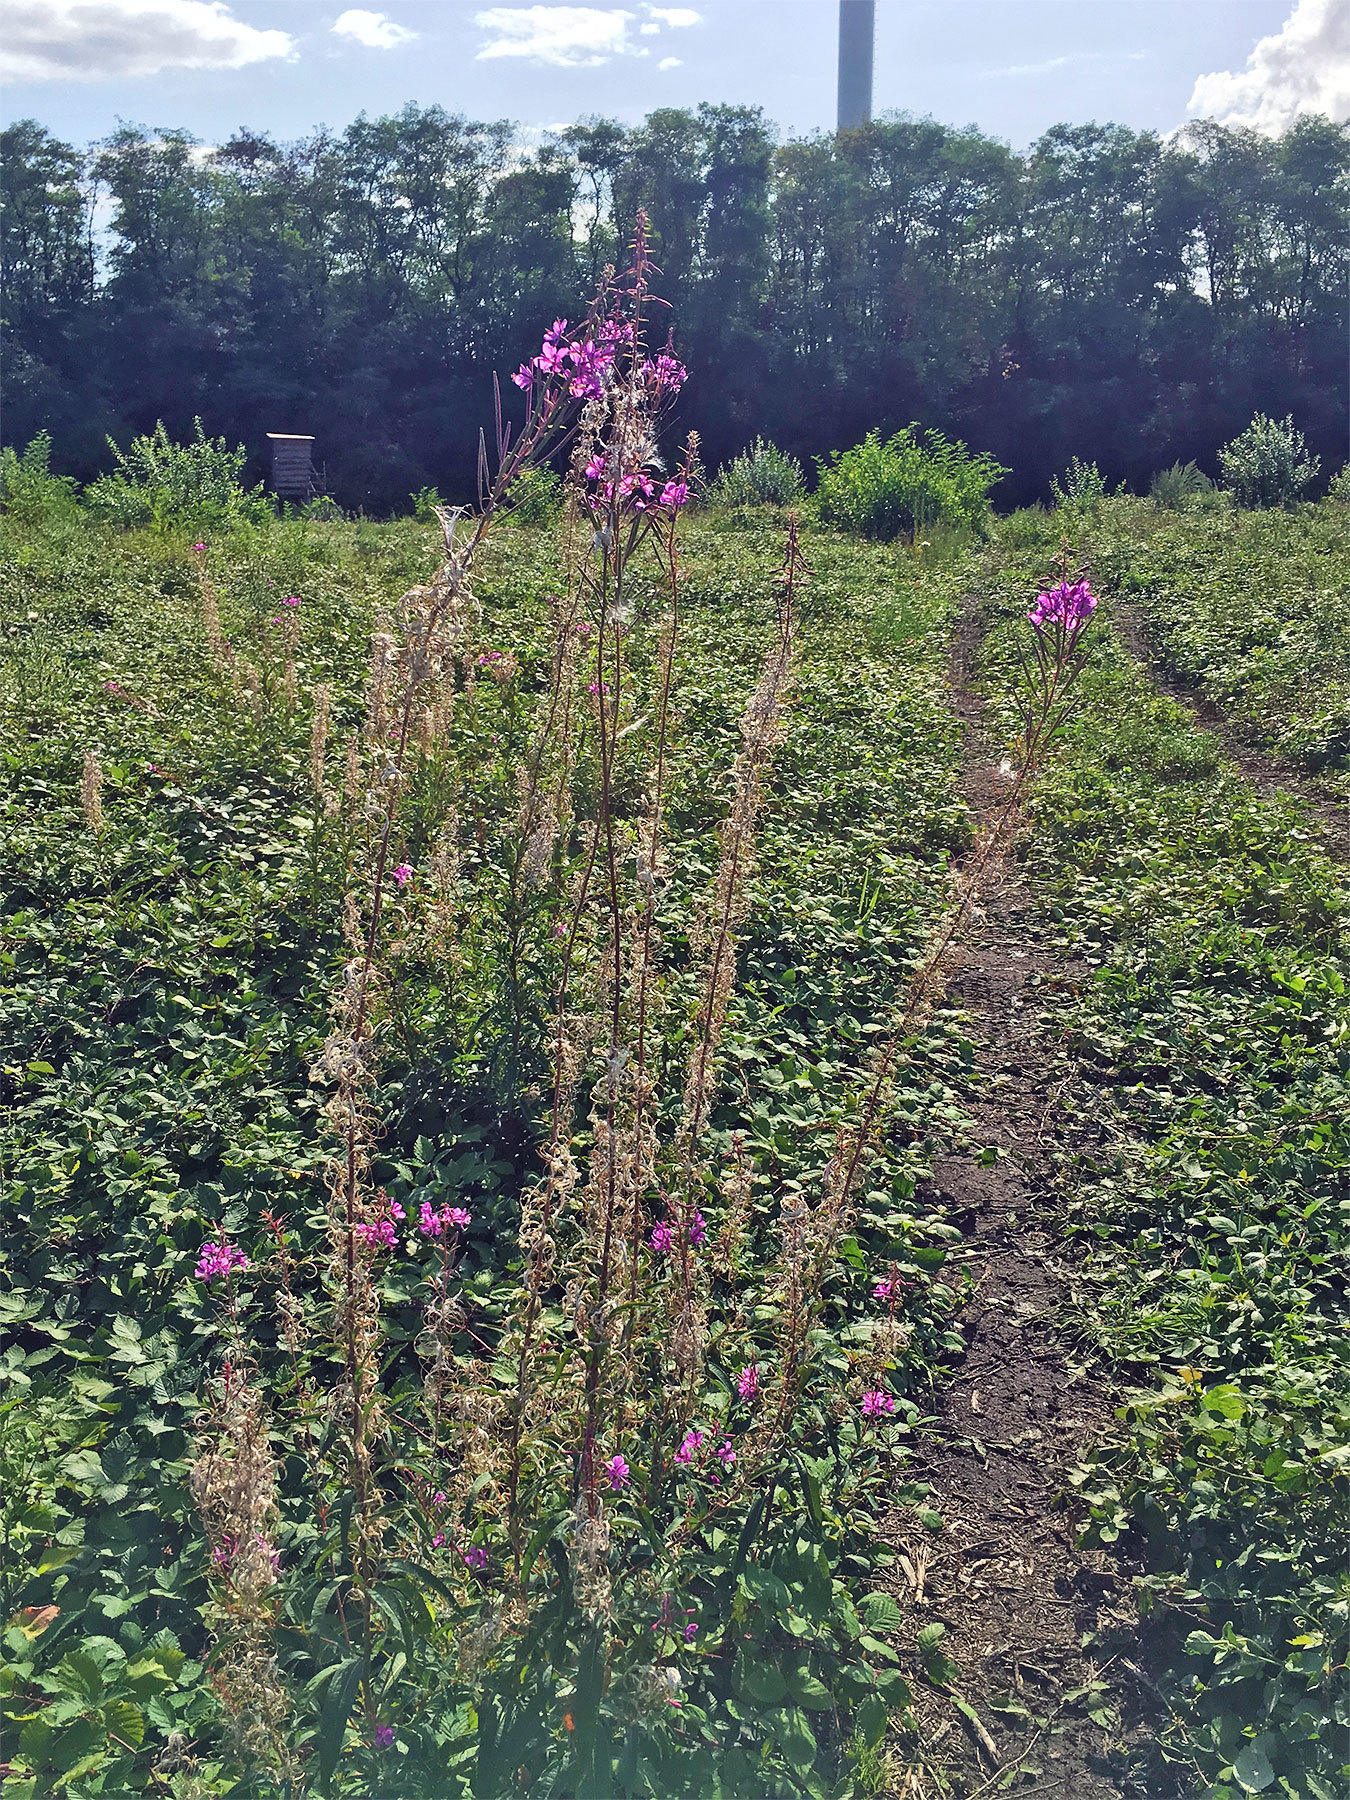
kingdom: Plantae
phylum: Tracheophyta
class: Magnoliopsida
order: Myrtales
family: Onagraceae
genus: Chamaenerion
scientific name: Chamaenerion angustifolium
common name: Fireweed
